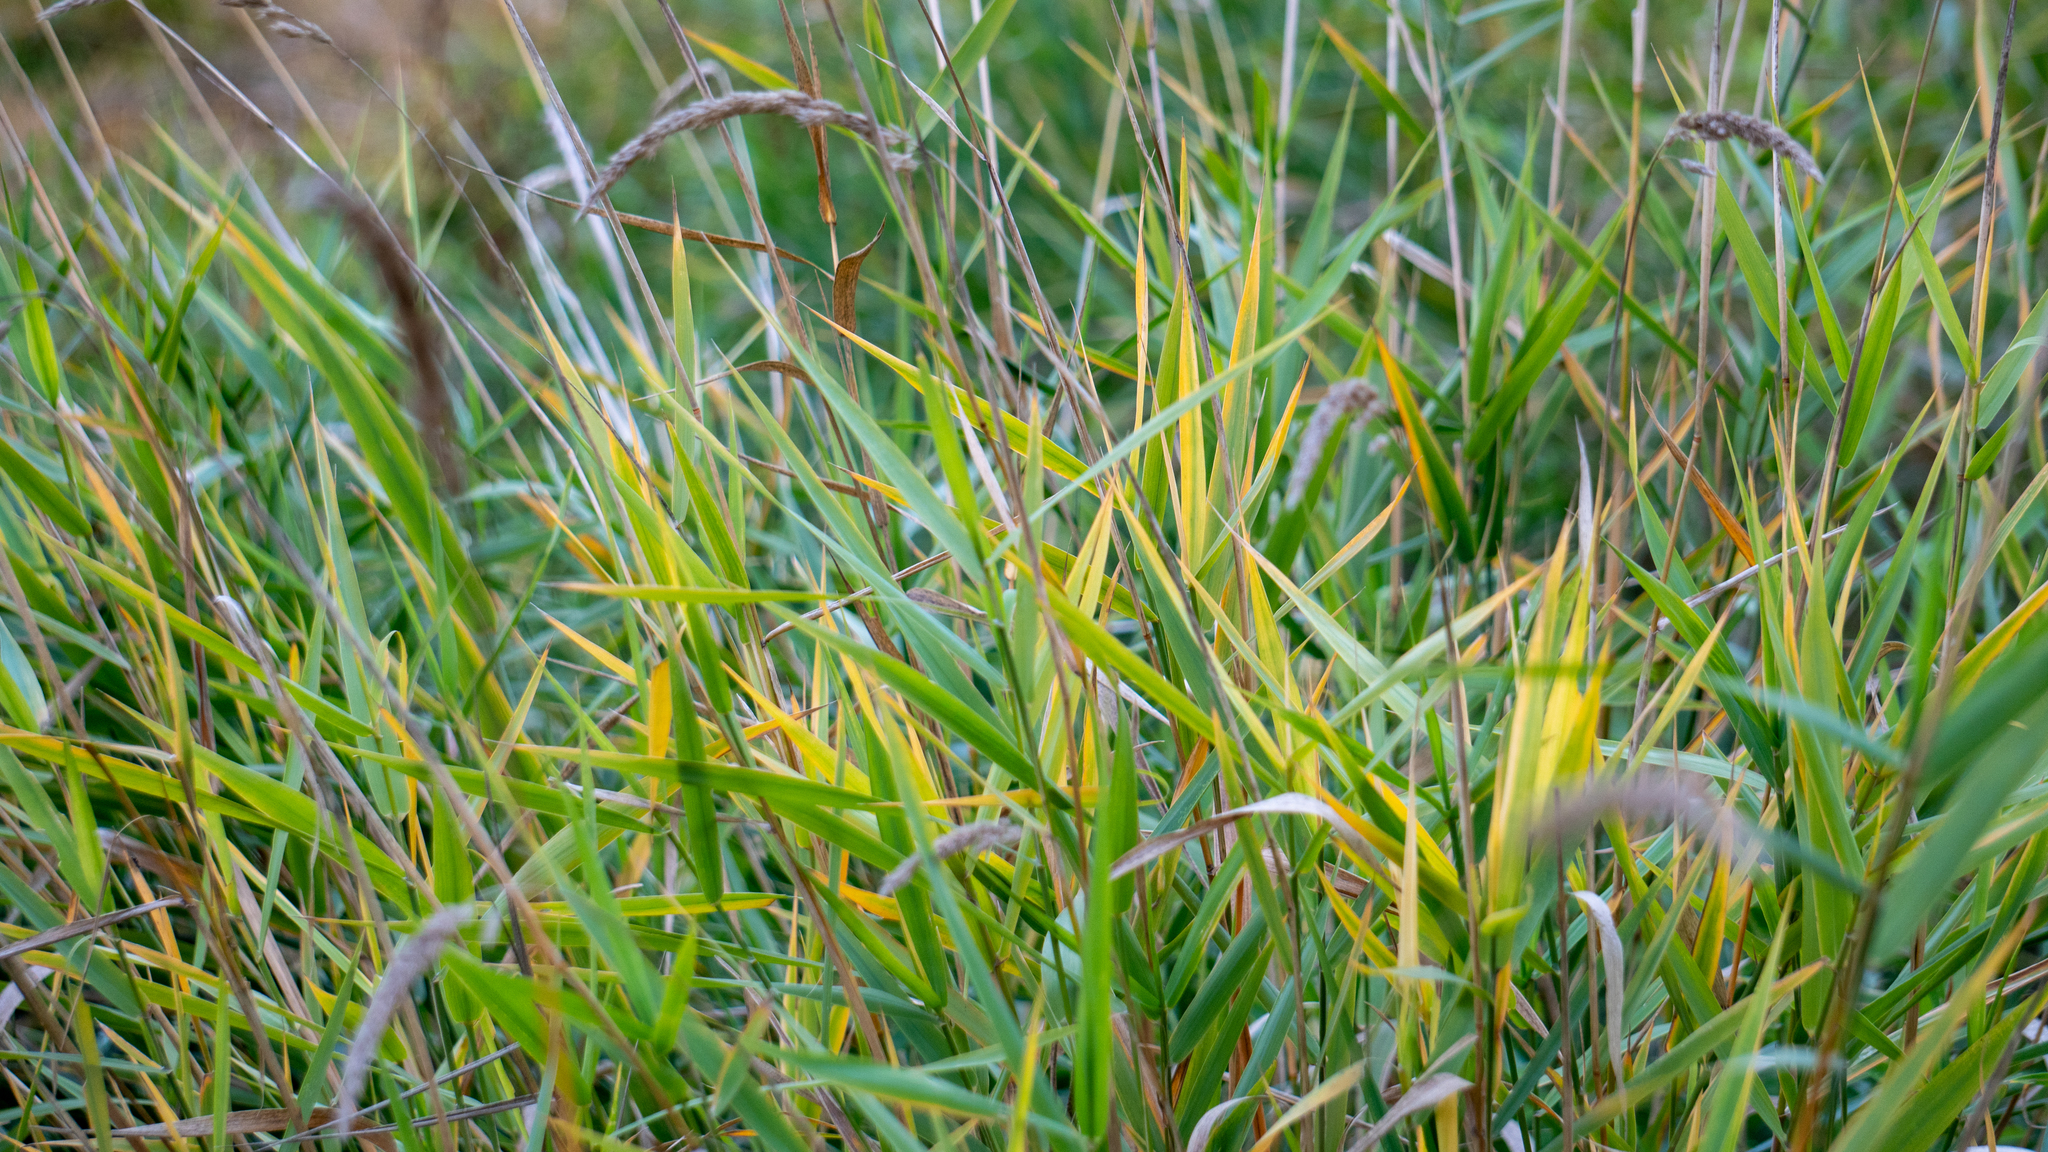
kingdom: Plantae
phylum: Tracheophyta
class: Liliopsida
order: Poales
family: Poaceae
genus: Phalaris
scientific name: Phalaris arundinacea
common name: Reed canary-grass
